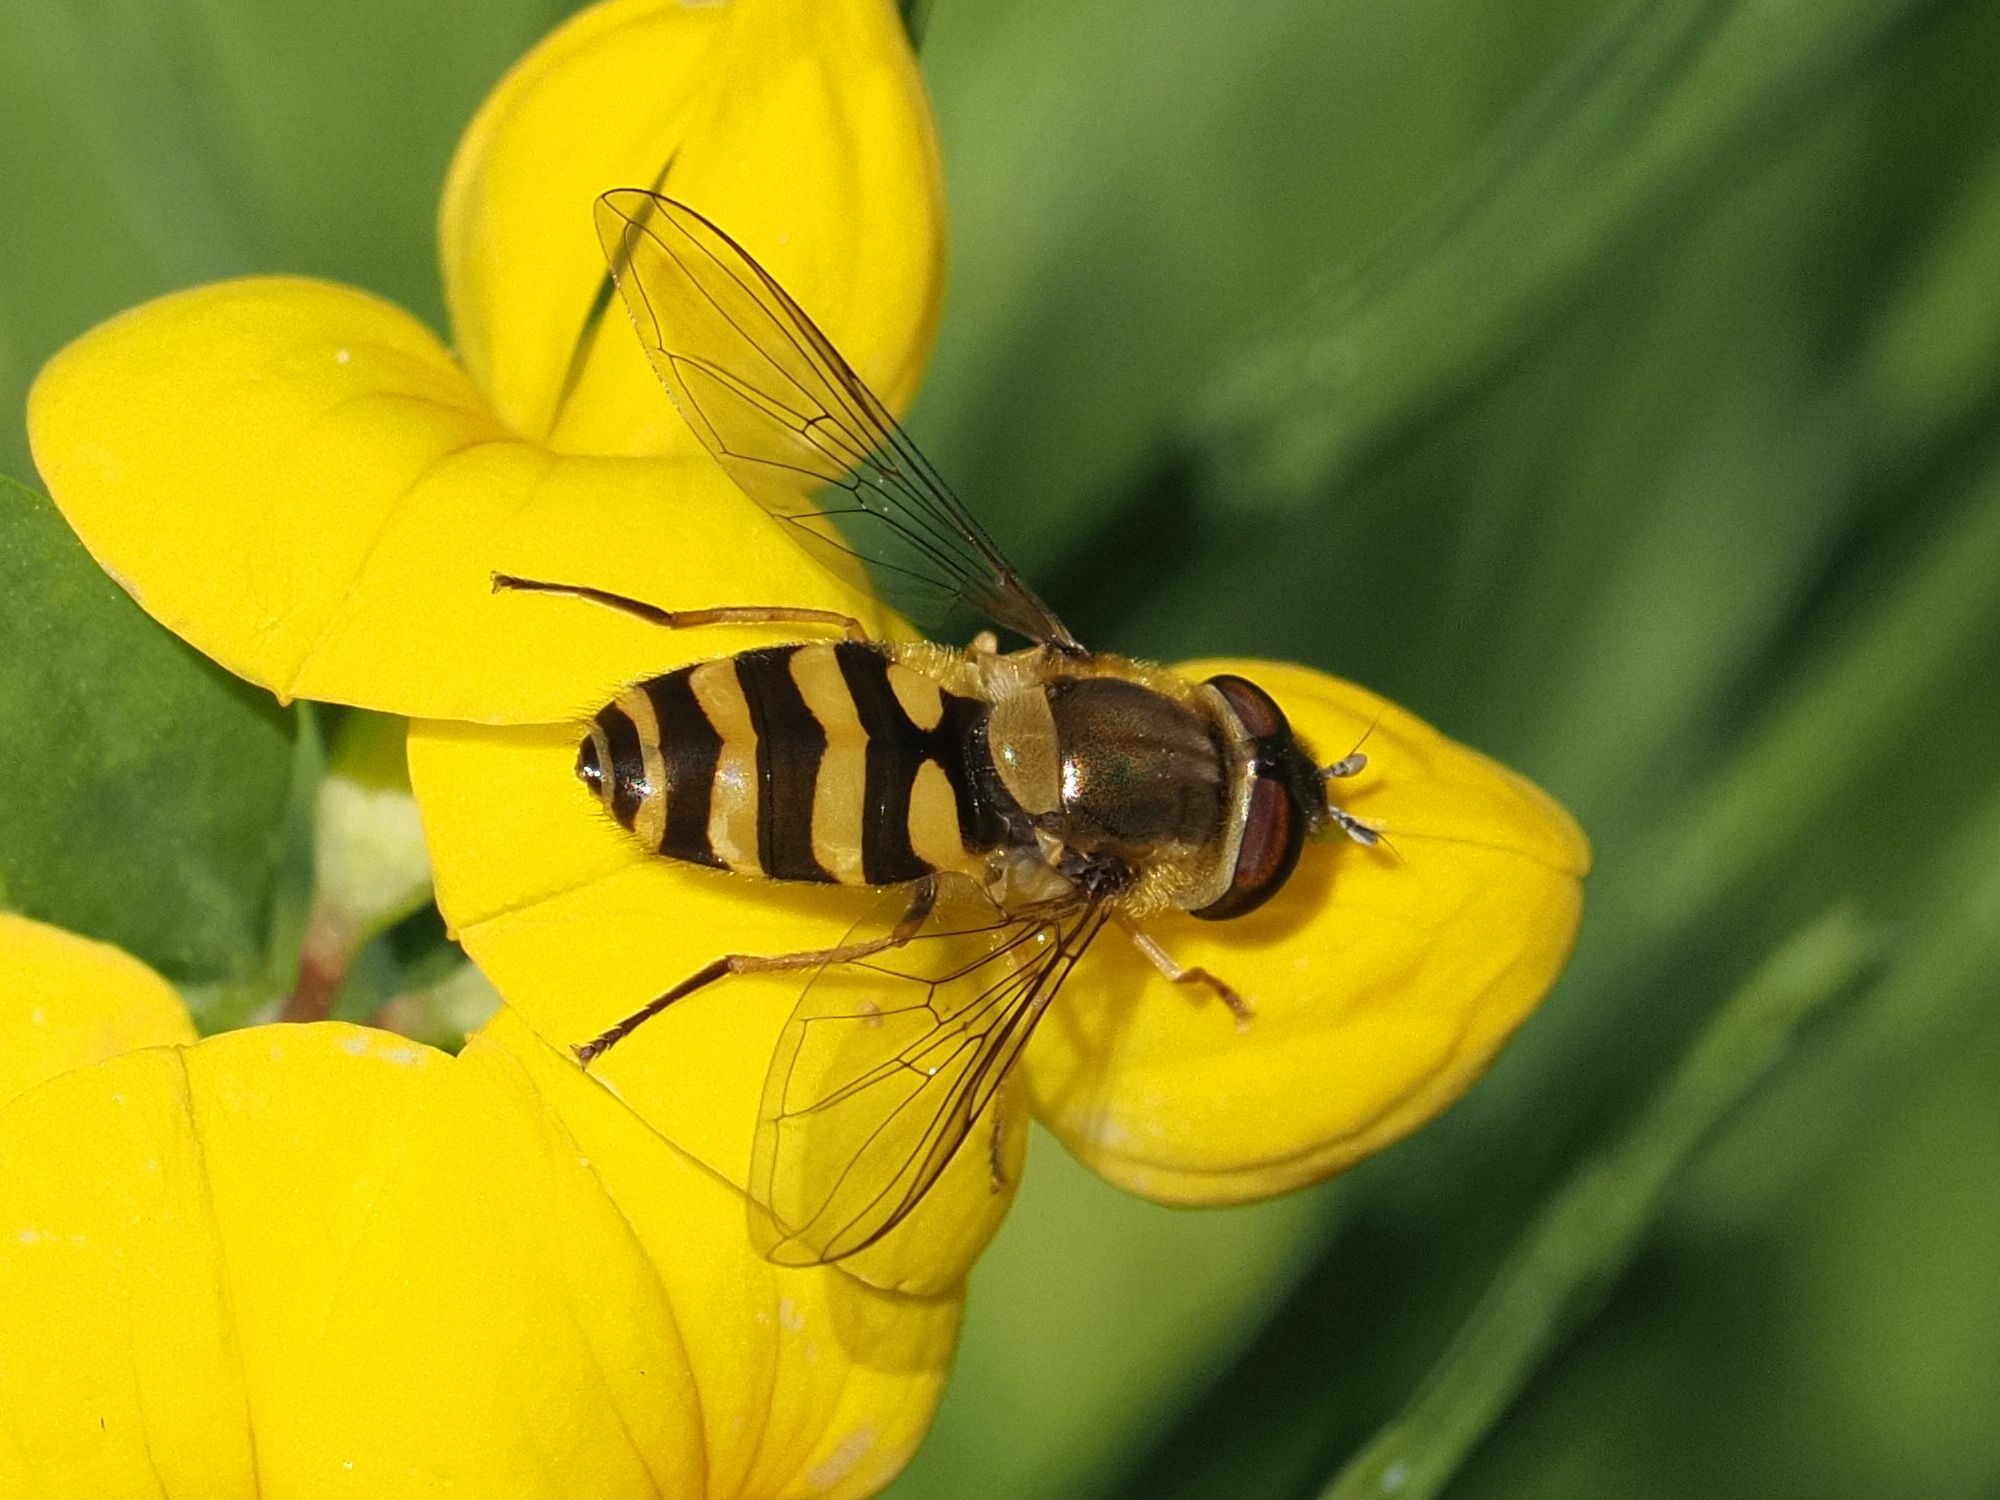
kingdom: Animalia
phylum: Arthropoda
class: Insecta
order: Diptera
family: Syrphidae
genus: Syrphus
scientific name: Syrphus
